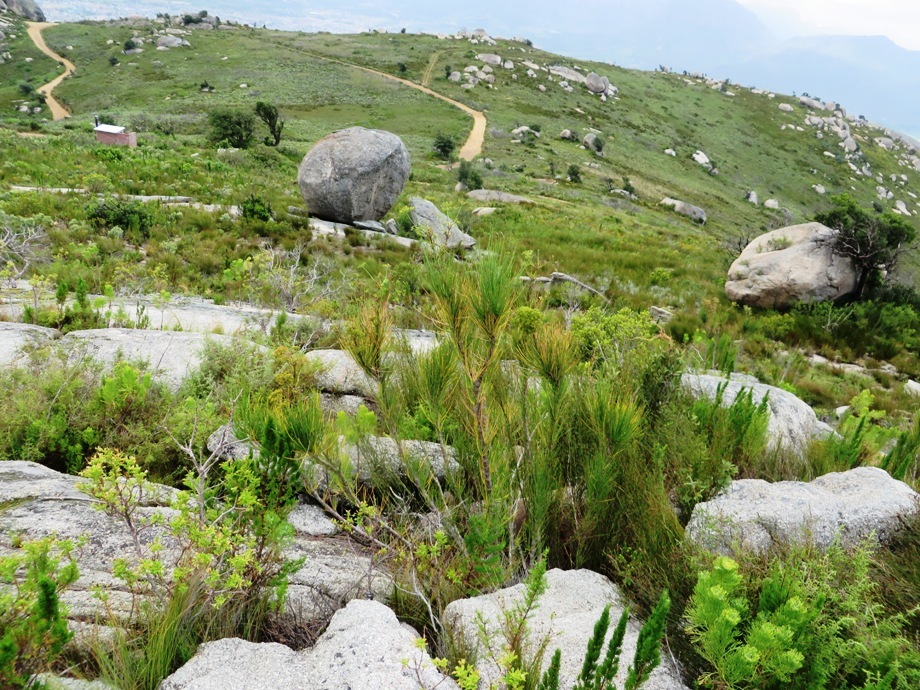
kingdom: Plantae
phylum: Tracheophyta
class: Magnoliopsida
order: Apiales
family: Apiaceae
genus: Anginon
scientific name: Anginon difforme
